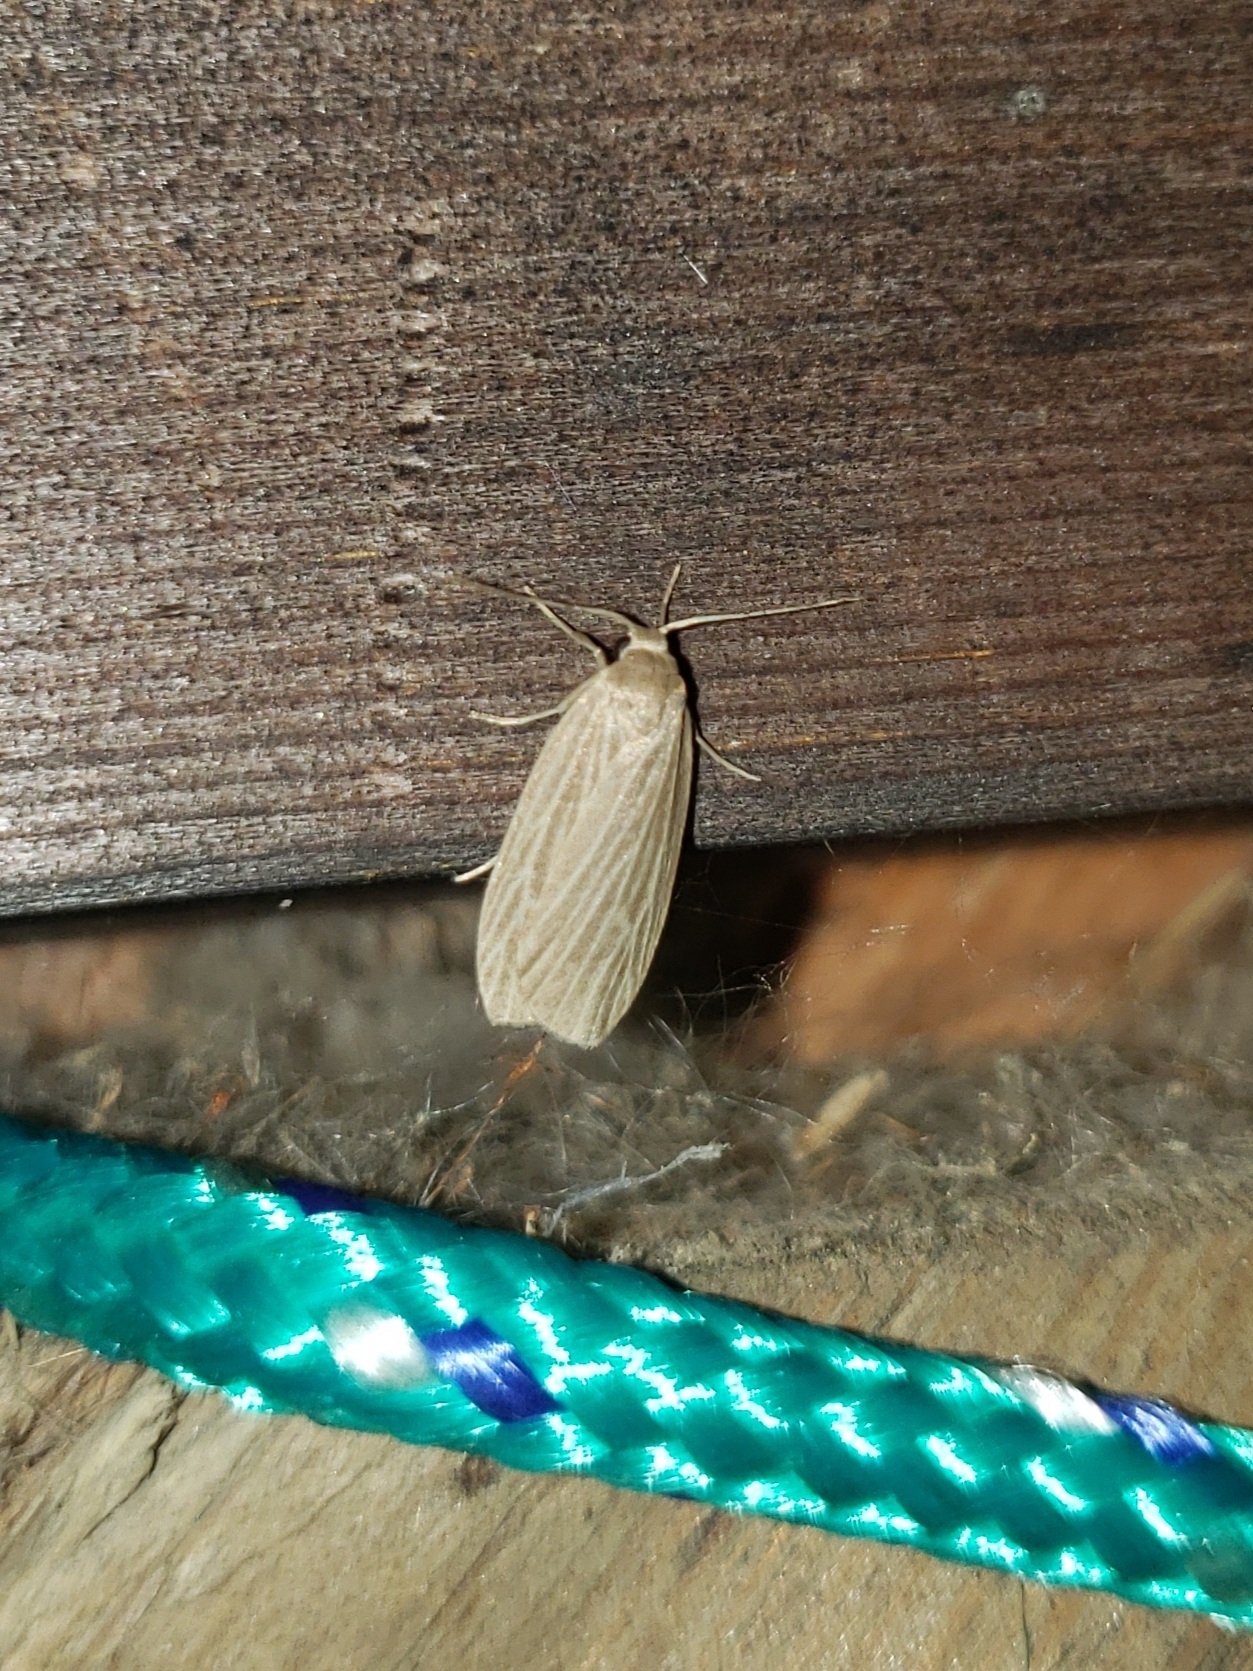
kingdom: Animalia
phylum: Arthropoda
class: Insecta
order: Lepidoptera
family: Erebidae
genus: Crambidia
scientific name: Crambidia pallida
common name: Pale lichen moth
